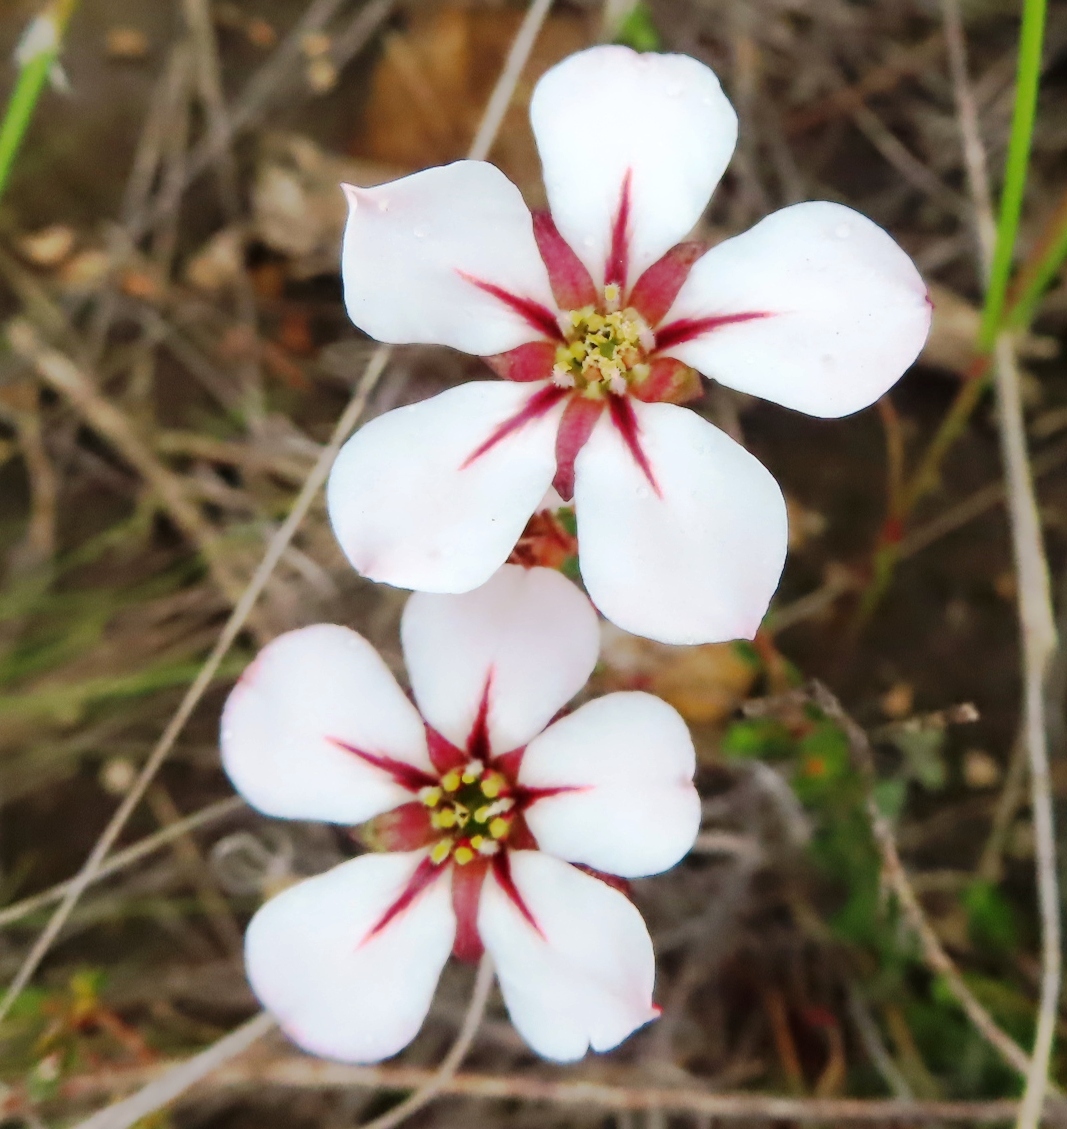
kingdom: Plantae
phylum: Tracheophyta
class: Magnoliopsida
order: Sapindales
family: Rutaceae
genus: Adenandra
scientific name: Adenandra uniflora
